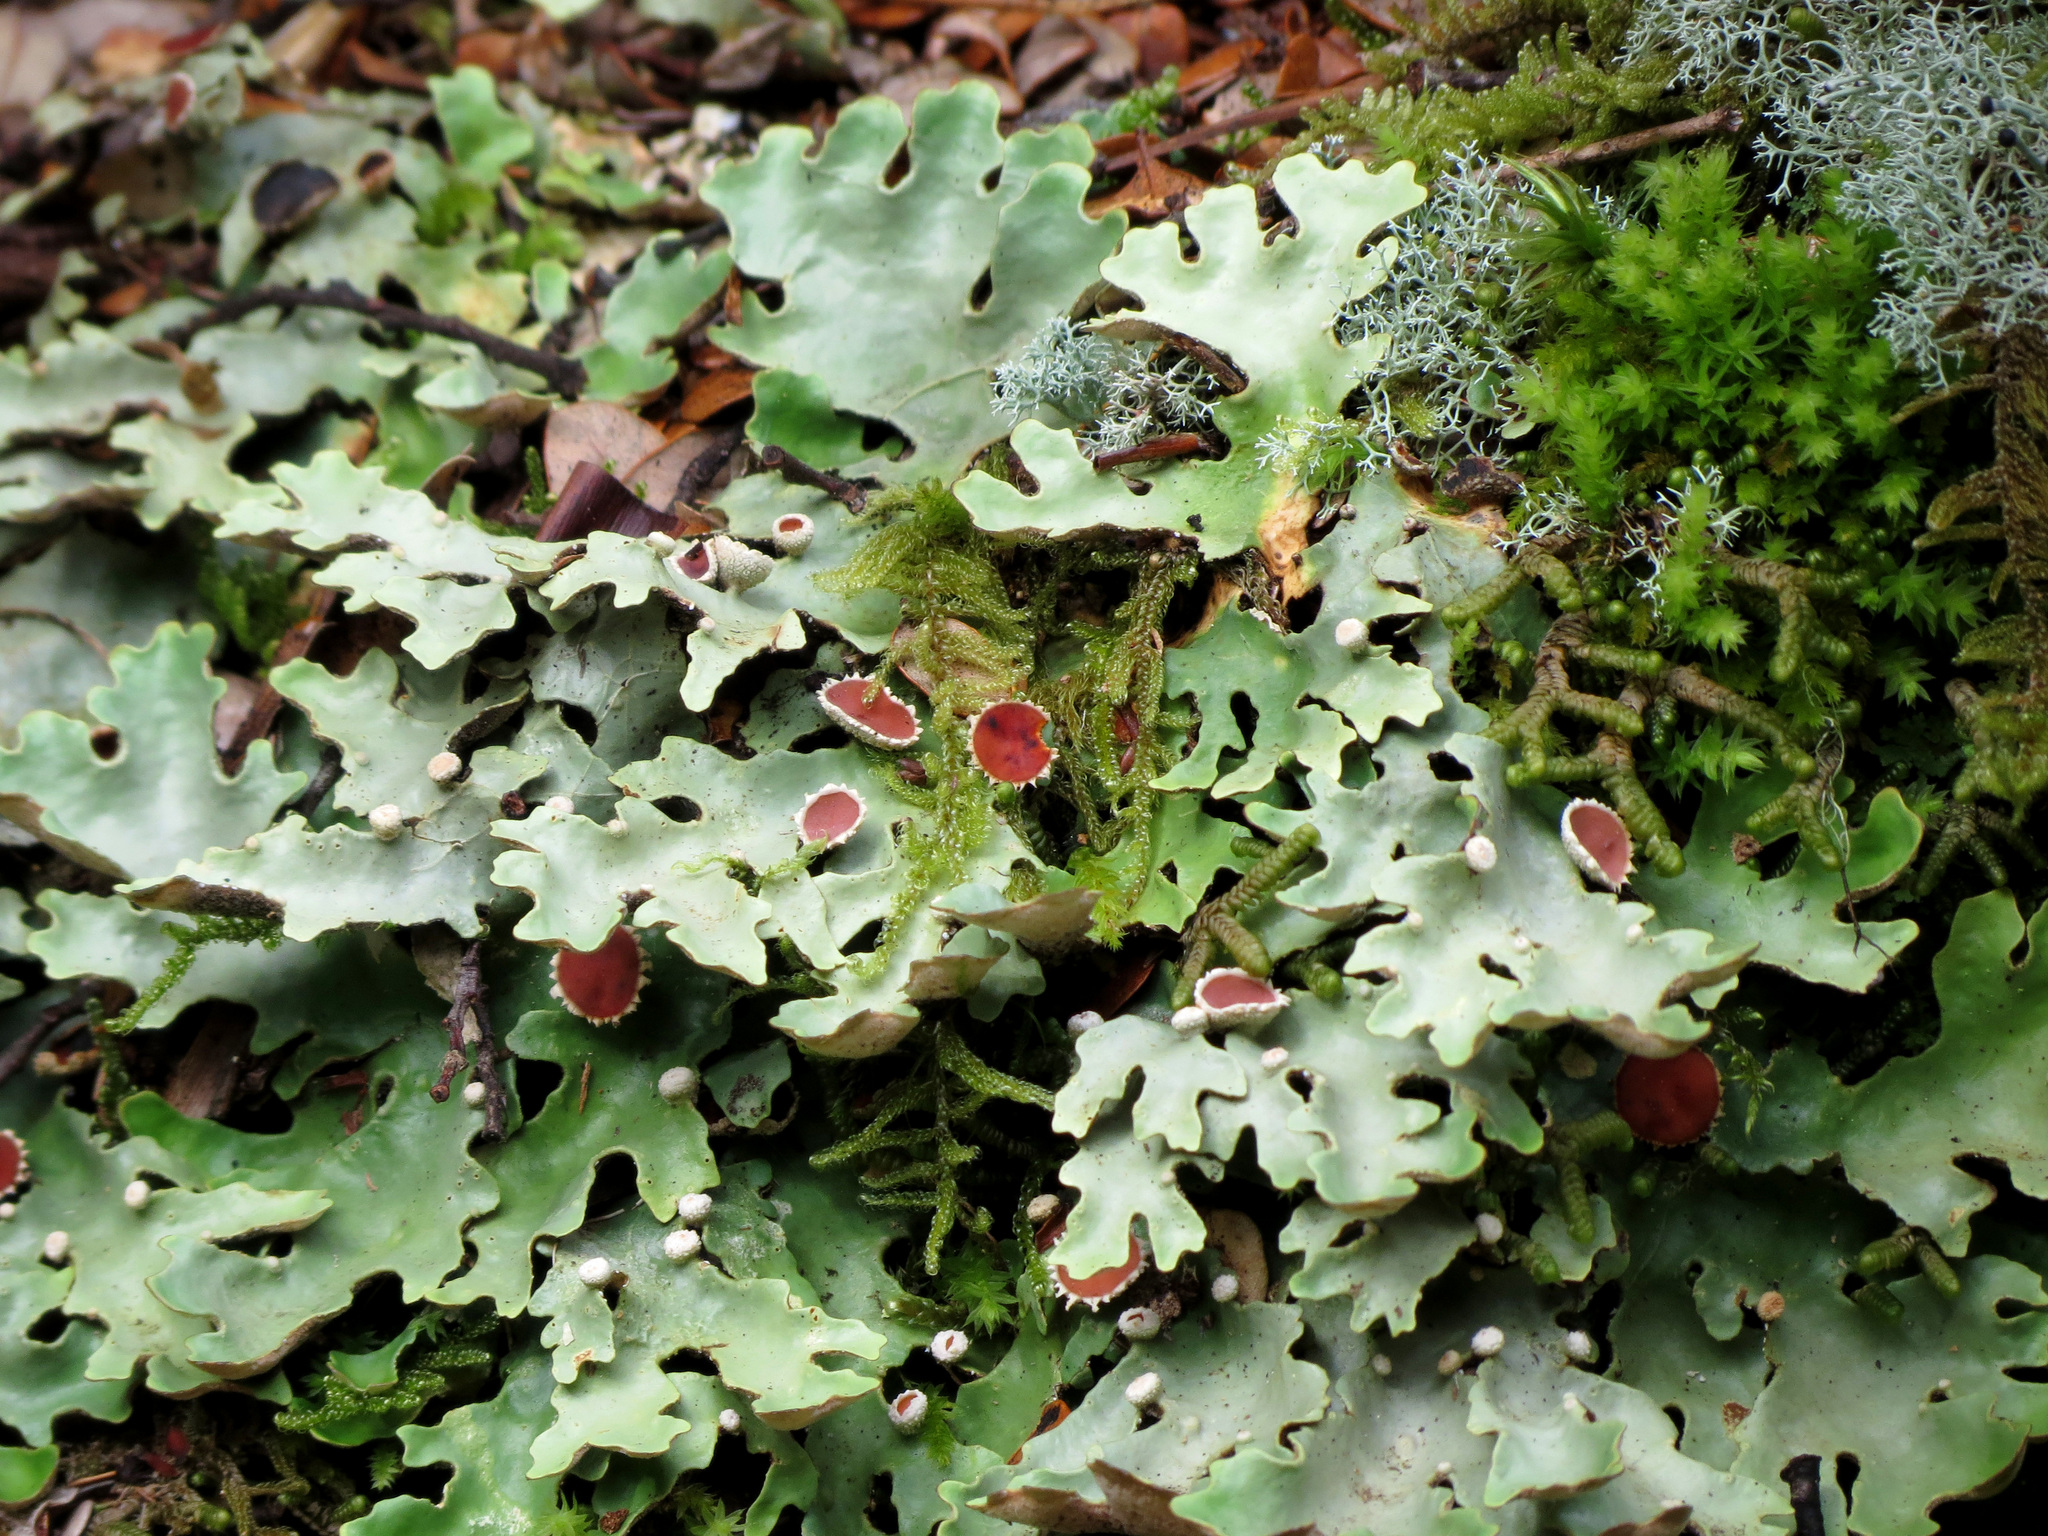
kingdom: Fungi
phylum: Ascomycota
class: Lecanoromycetes
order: Peltigerales
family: Lobariaceae
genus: Pseudocyphellaria
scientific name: Pseudocyphellaria homeophylla
